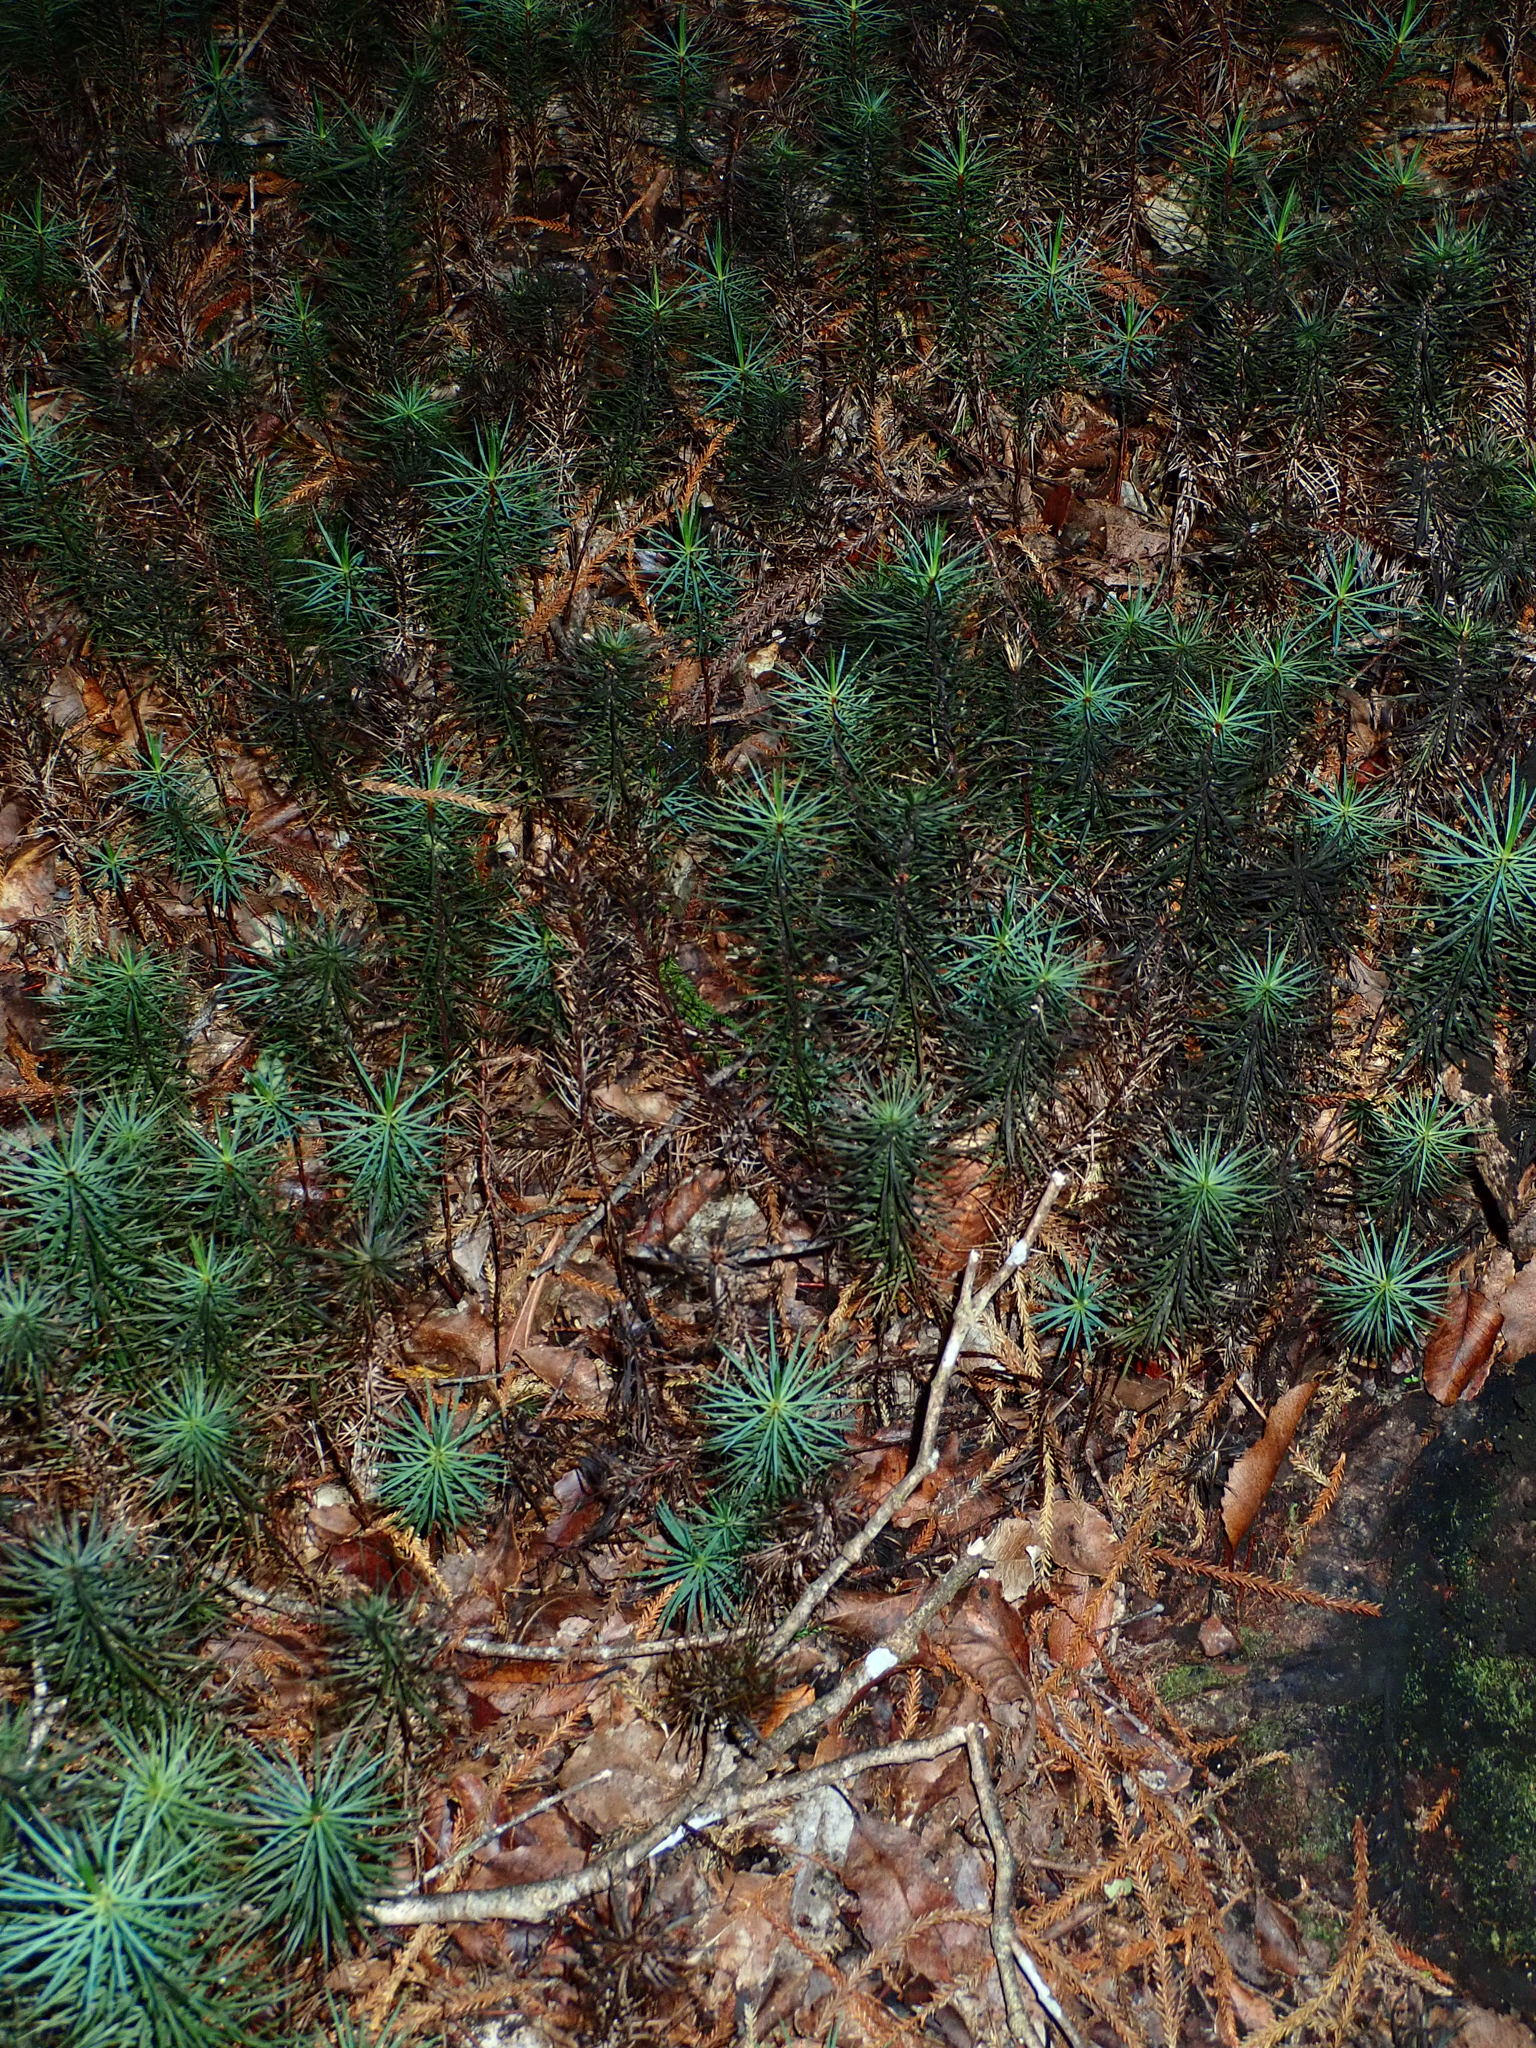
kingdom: Plantae
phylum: Bryophyta
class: Polytrichopsida
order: Polytrichales
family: Polytrichaceae
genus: Dawsonia
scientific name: Dawsonia superba
